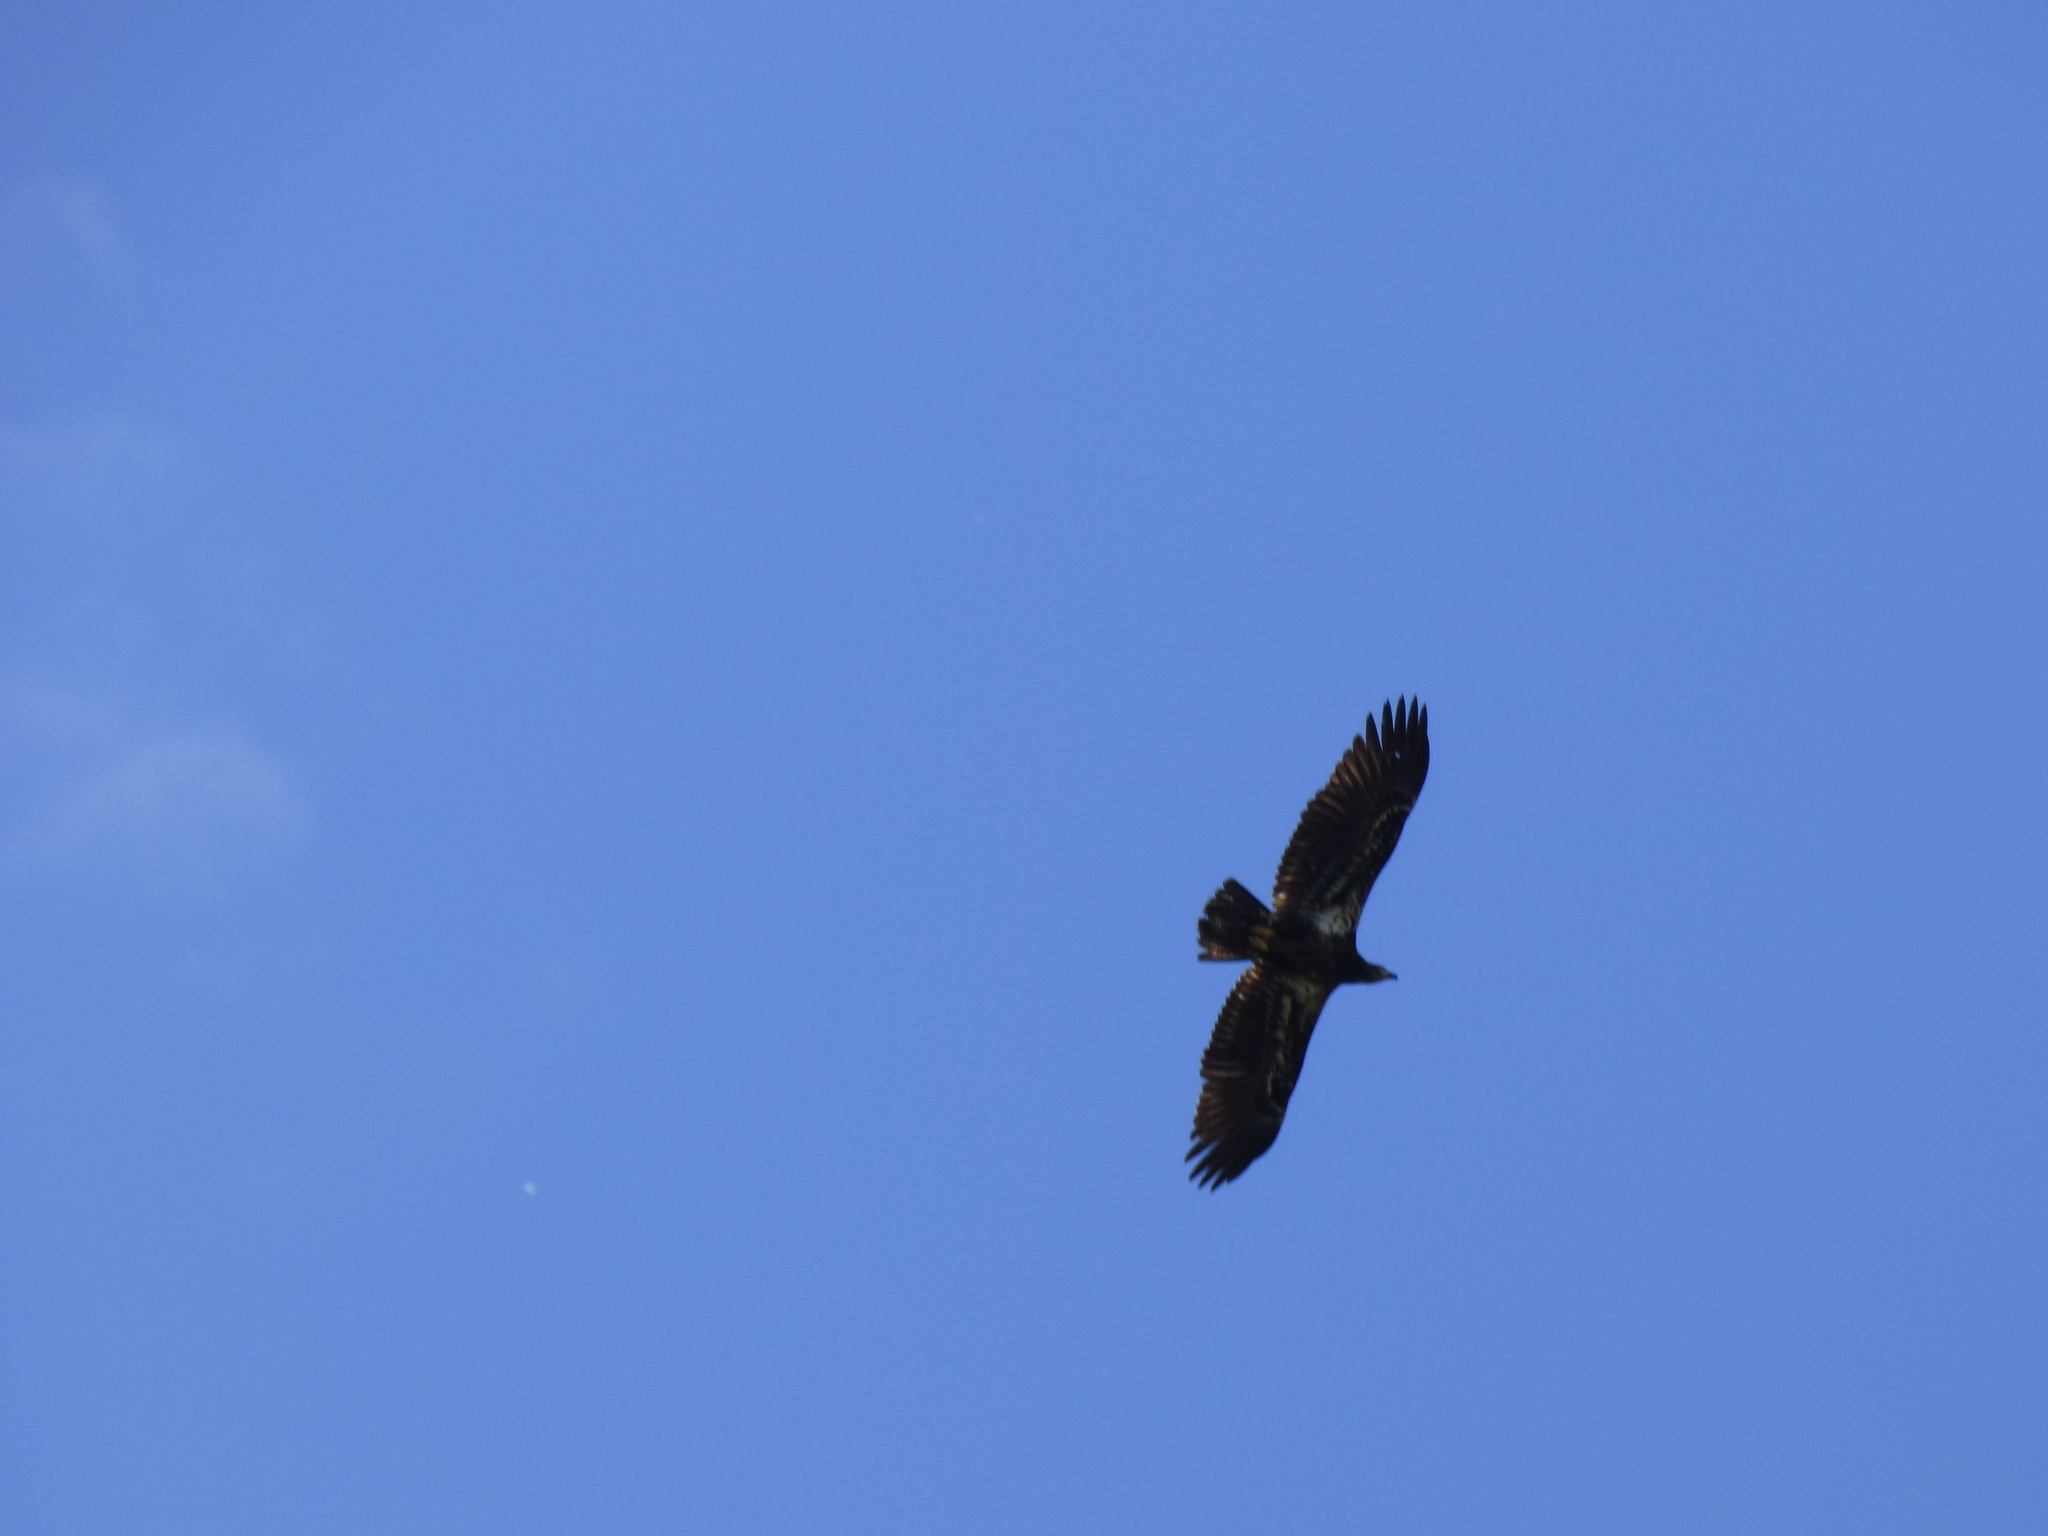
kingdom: Animalia
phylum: Chordata
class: Aves
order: Accipitriformes
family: Accipitridae
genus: Haliaeetus
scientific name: Haliaeetus leucocephalus
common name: Bald eagle
